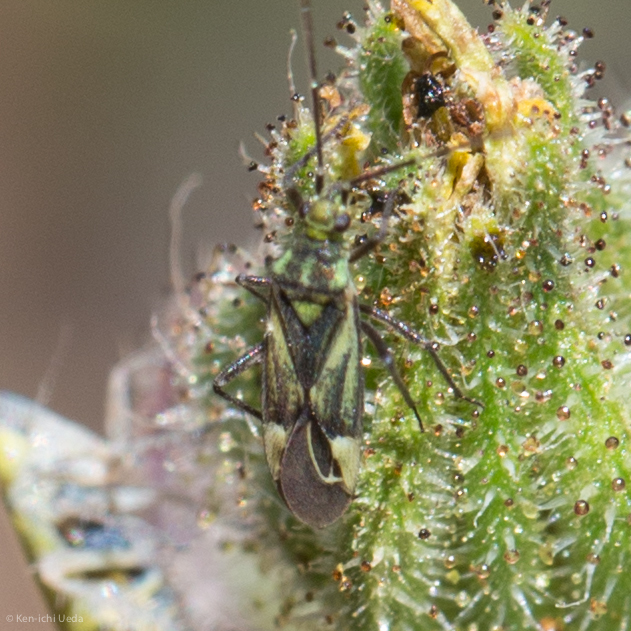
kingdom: Animalia
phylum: Arthropoda
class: Insecta
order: Hemiptera
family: Miridae
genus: Macrotylus
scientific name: Macrotylus intermedius
